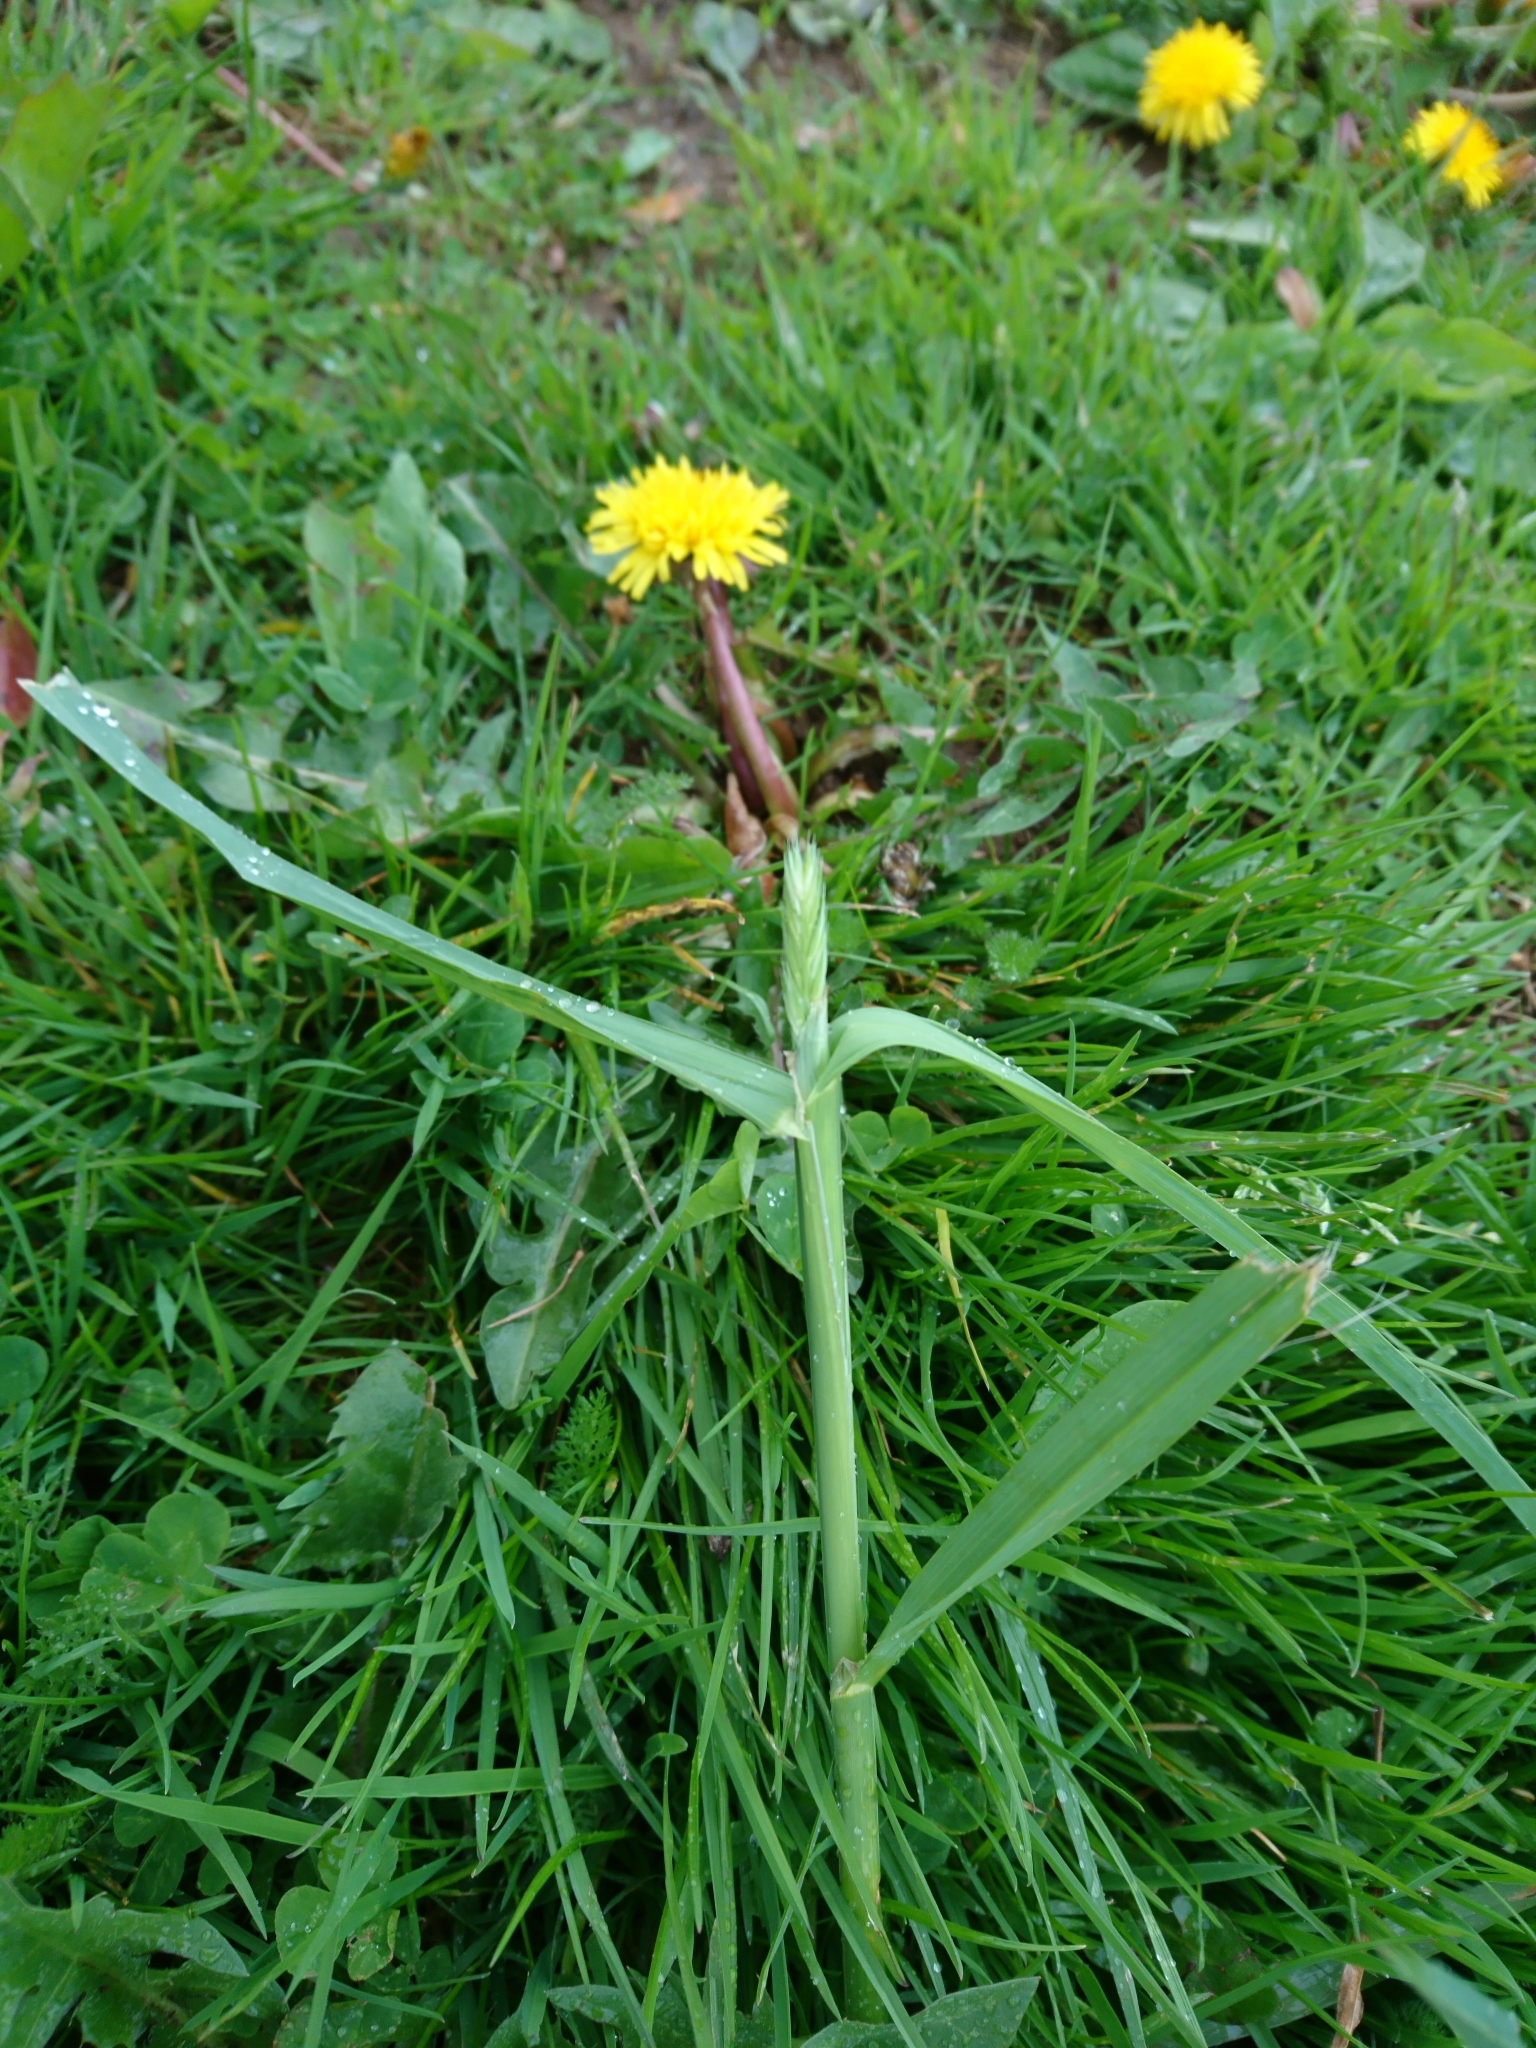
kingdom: Plantae
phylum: Tracheophyta
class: Liliopsida
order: Poales
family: Poaceae
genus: Dactylis
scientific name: Dactylis glomerata
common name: Orchardgrass
